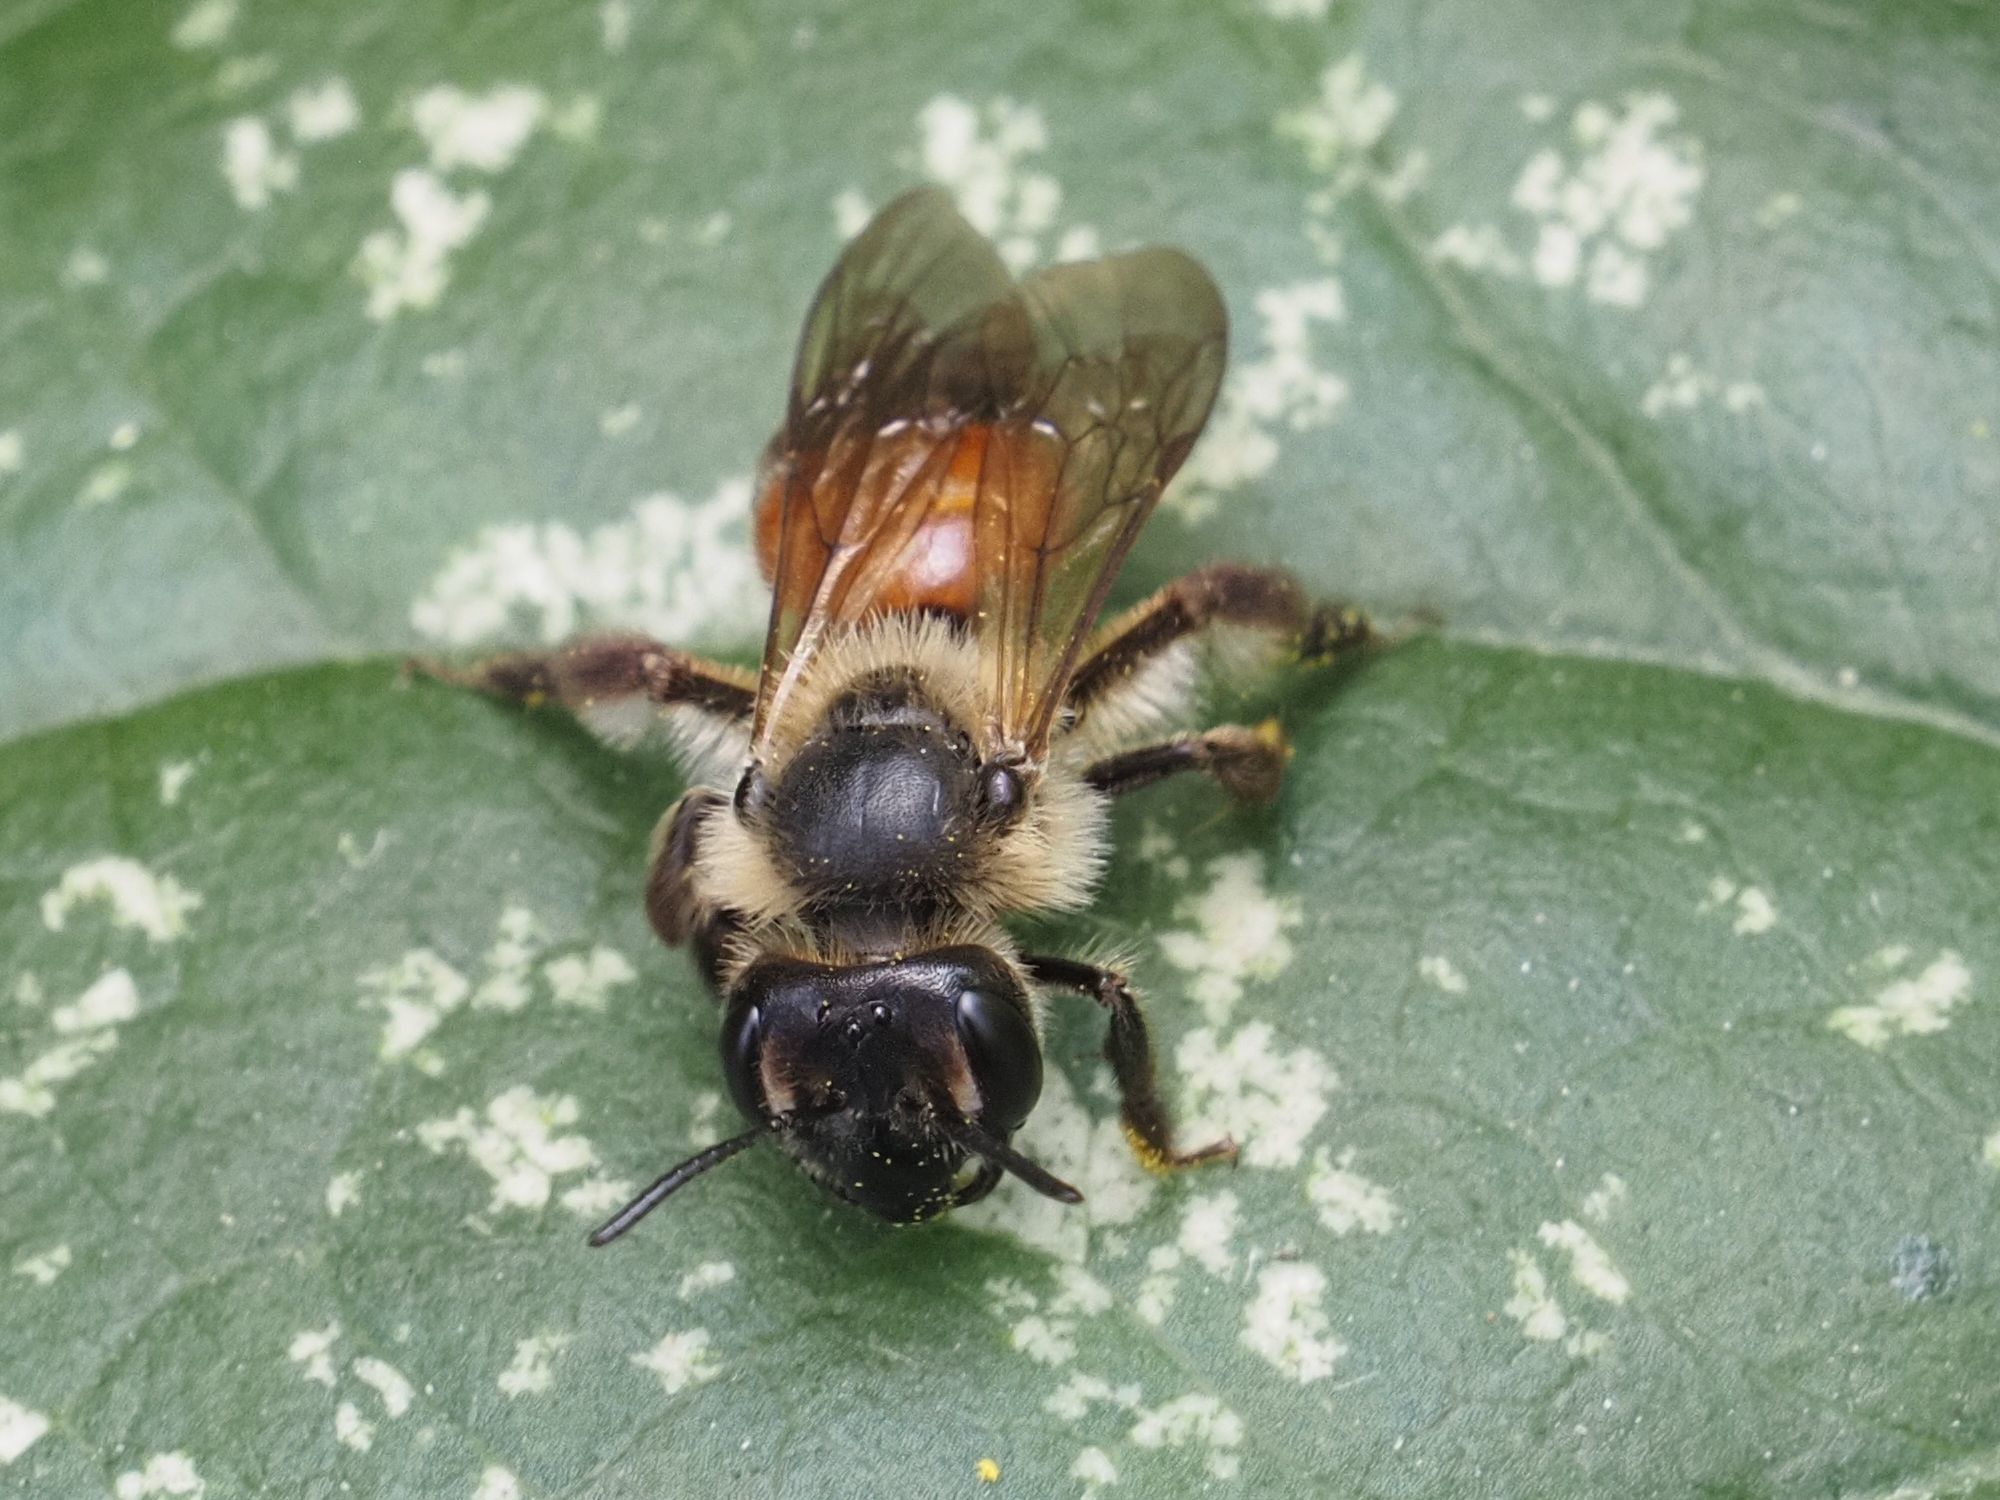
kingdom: Animalia
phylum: Arthropoda
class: Insecta
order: Hymenoptera
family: Andrenidae
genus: Andrena
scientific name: Andrena florea
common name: Bryony mining bee
